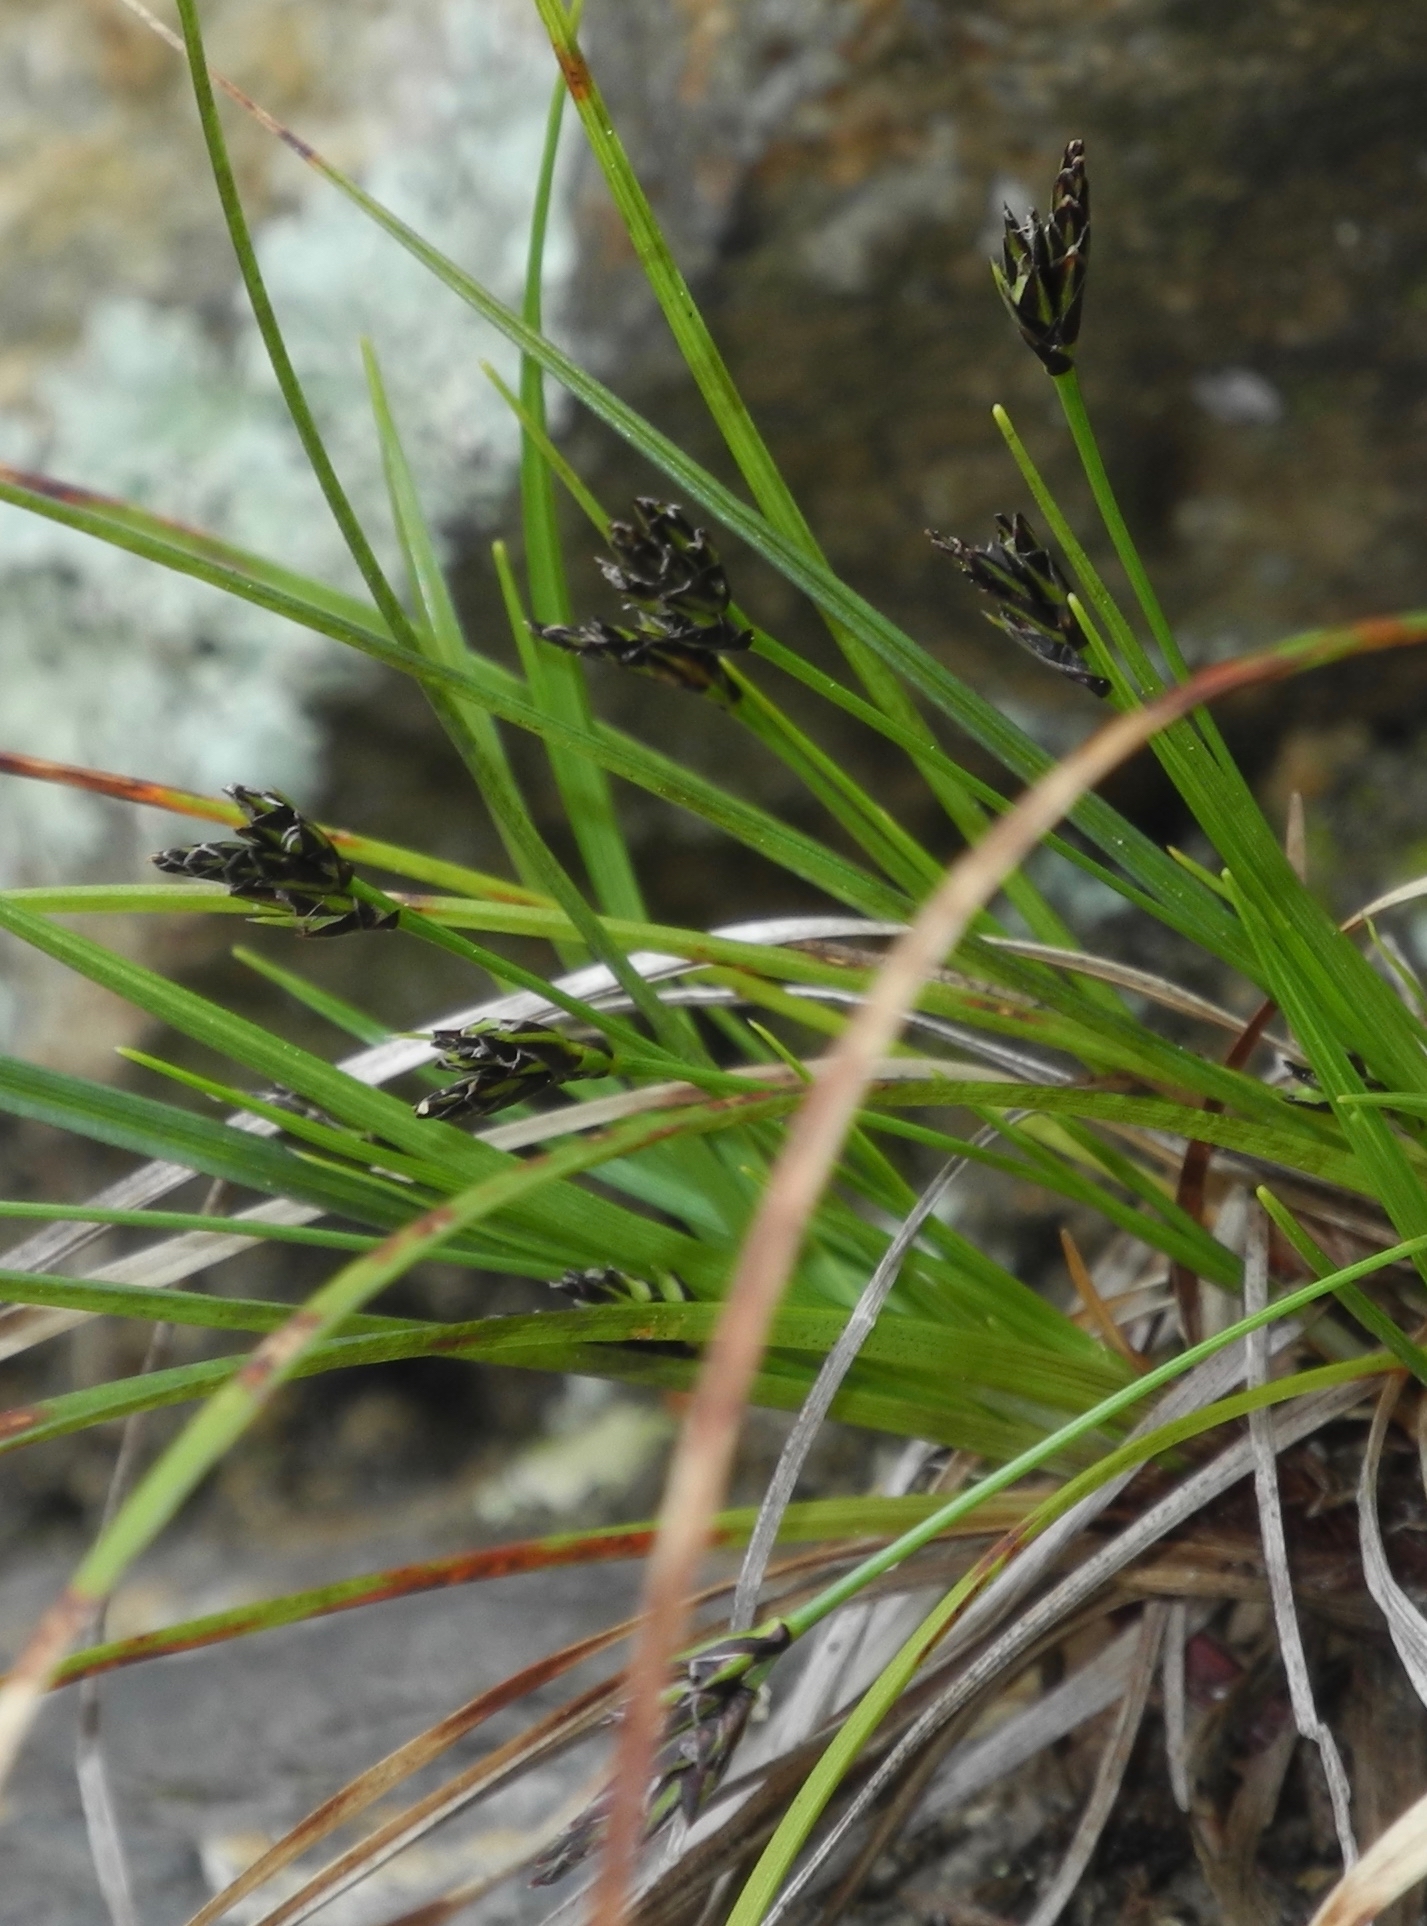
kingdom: Plantae
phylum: Tracheophyta
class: Liliopsida
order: Poales
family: Cyperaceae
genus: Carex
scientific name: Carex nigromarginata
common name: Black-edged sedge
